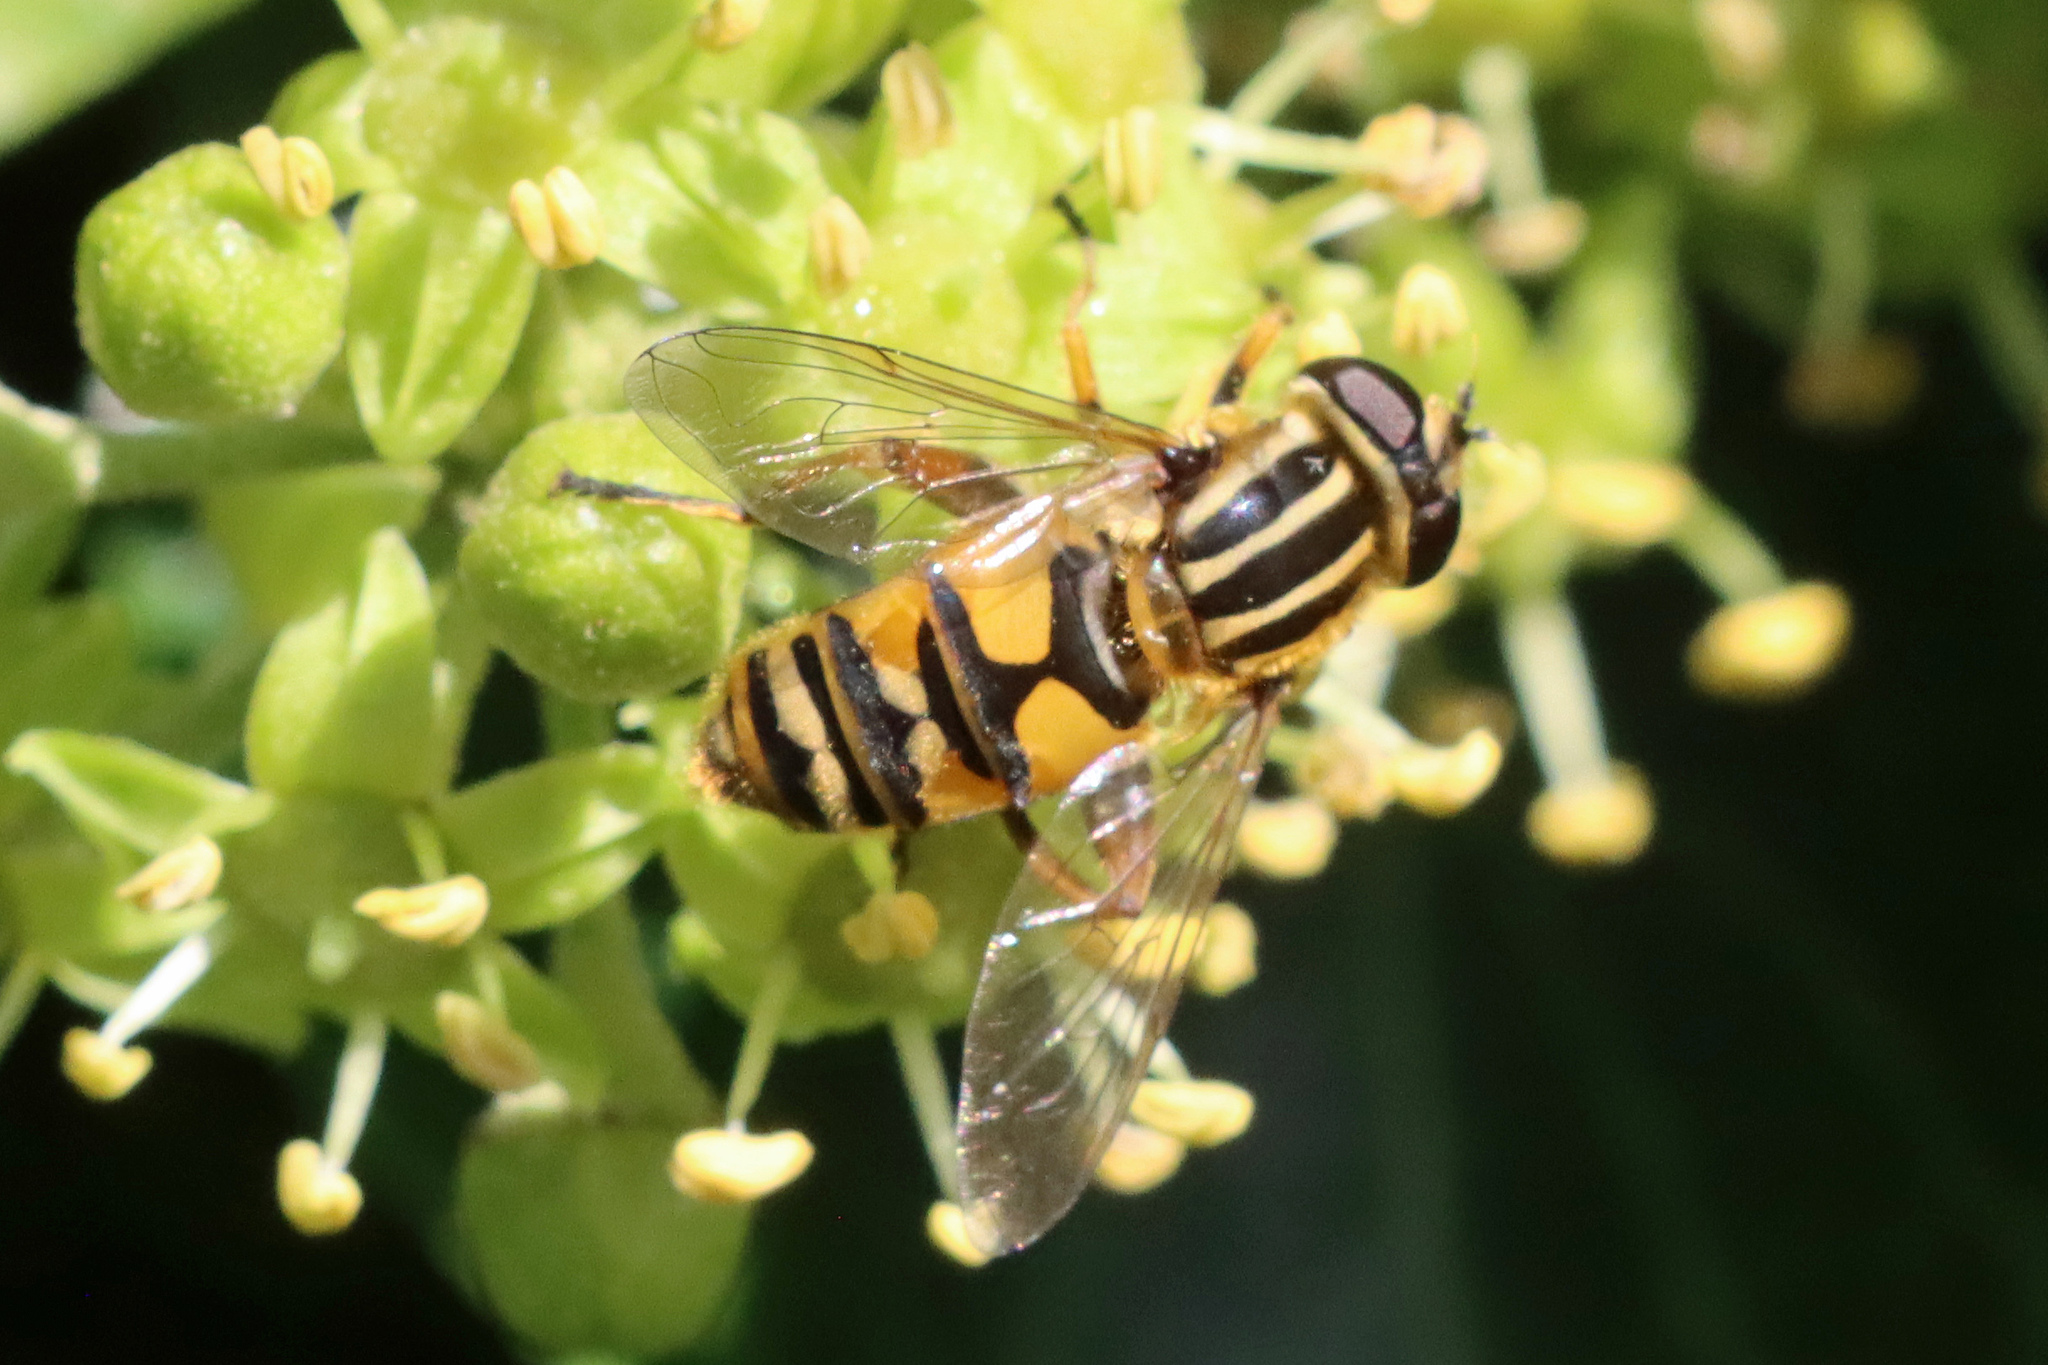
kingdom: Animalia
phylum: Arthropoda
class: Insecta
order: Diptera
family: Syrphidae
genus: Helophilus
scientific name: Helophilus pendulus
